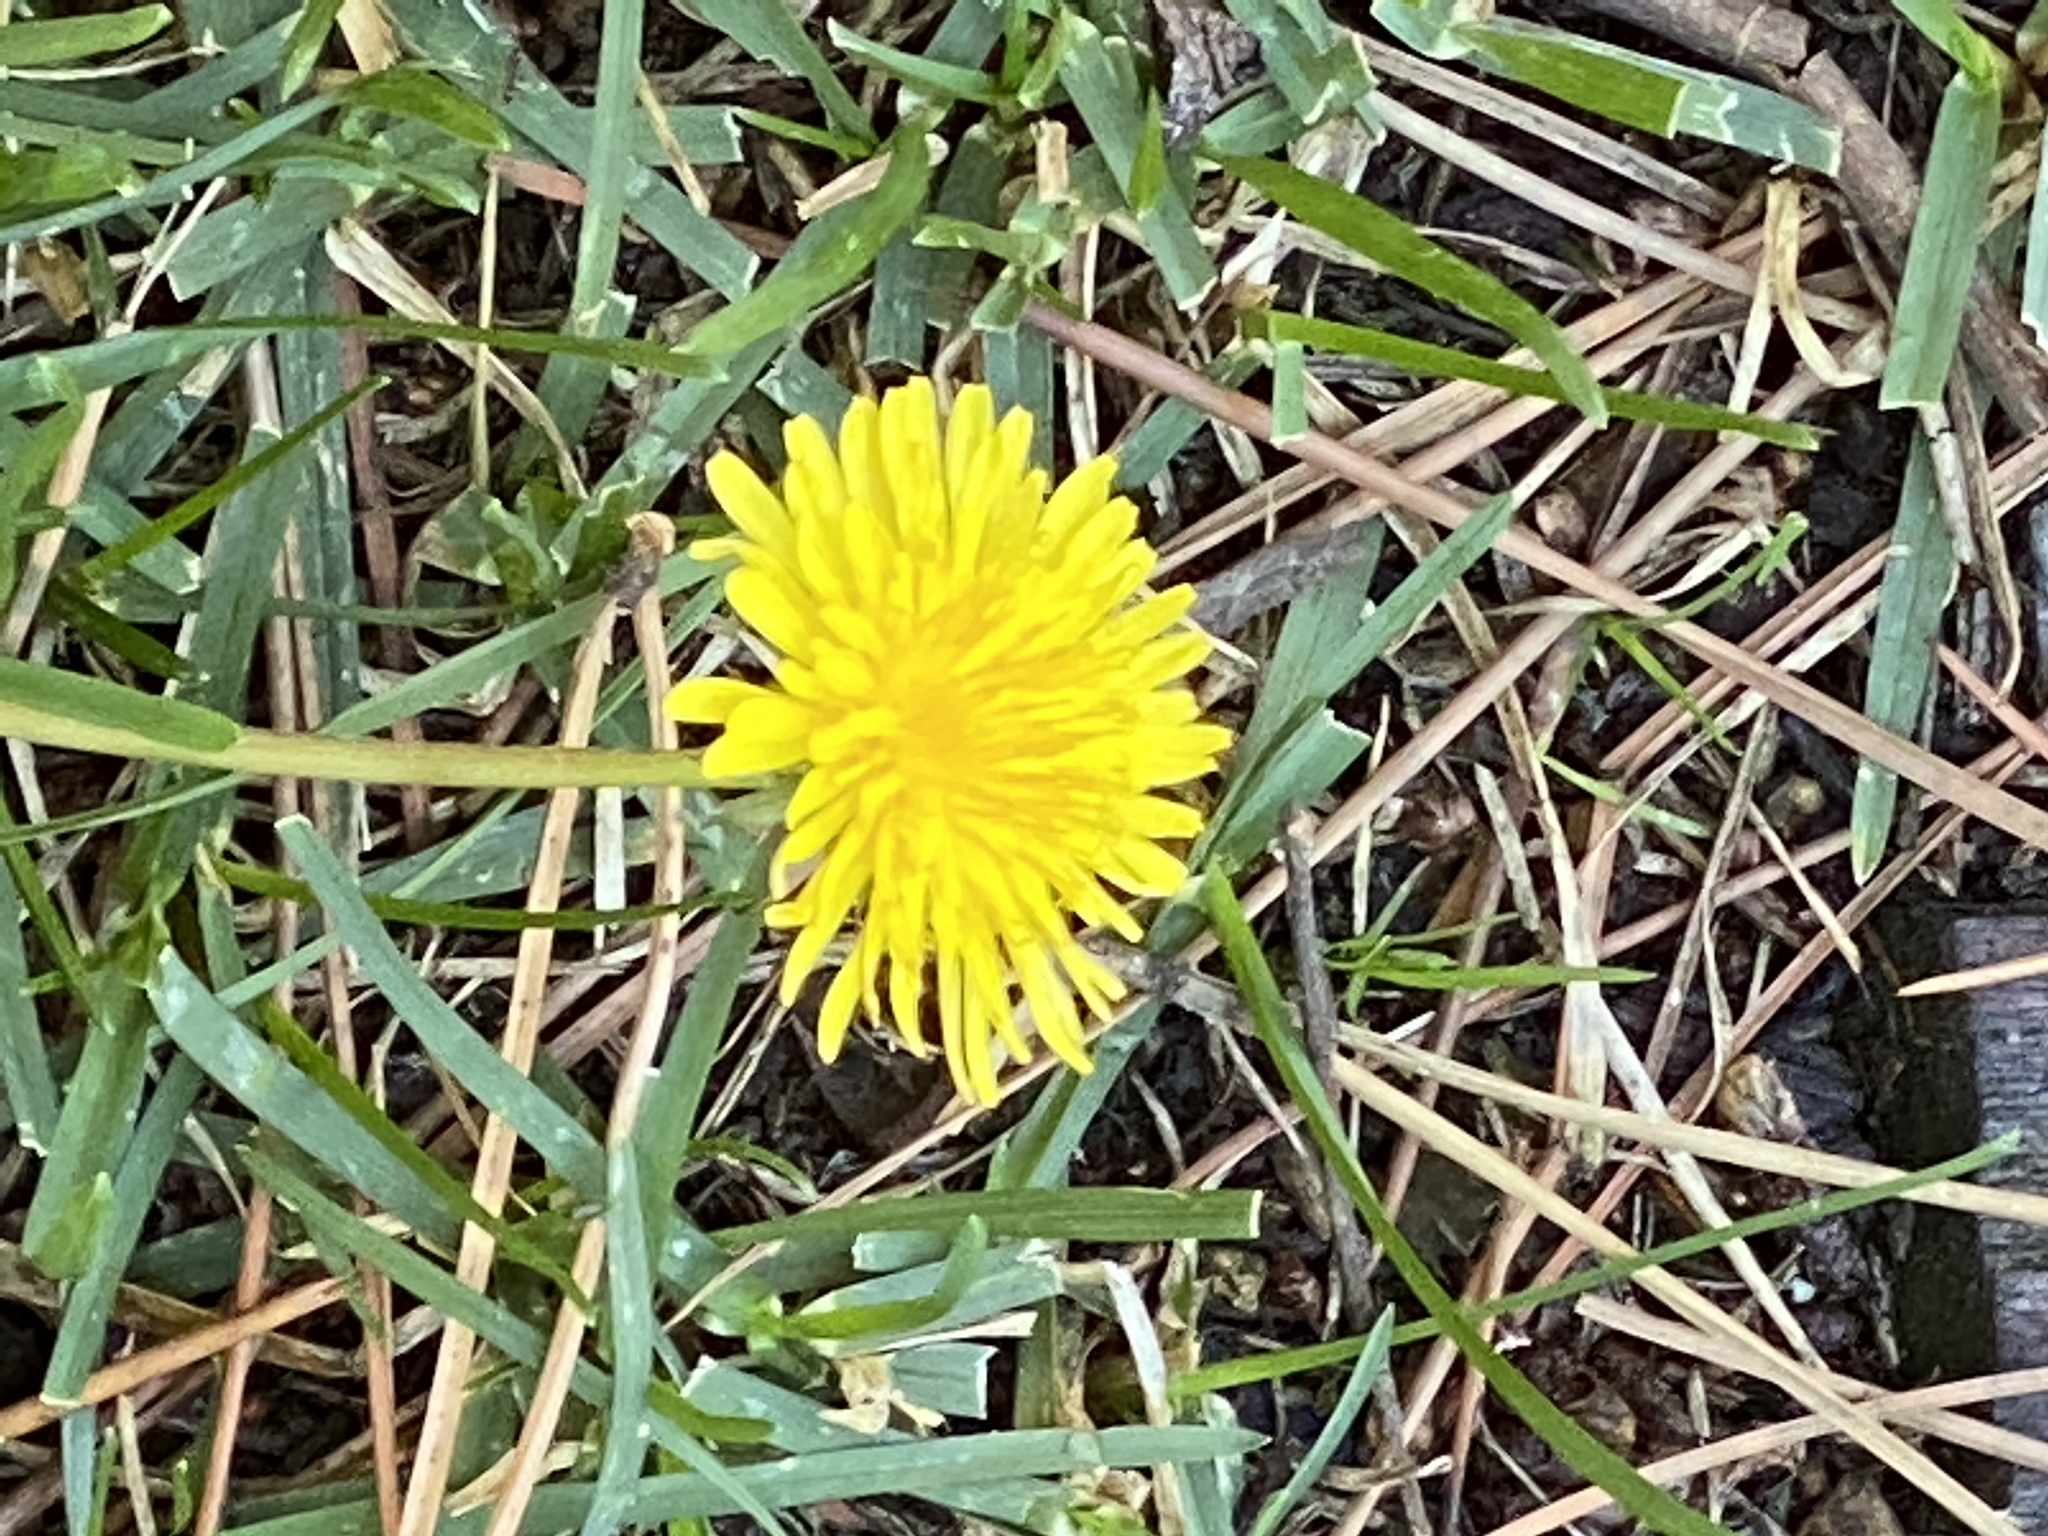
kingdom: Plantae
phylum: Tracheophyta
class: Magnoliopsida
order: Asterales
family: Asteraceae
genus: Taraxacum
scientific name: Taraxacum officinale
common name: Common dandelion
